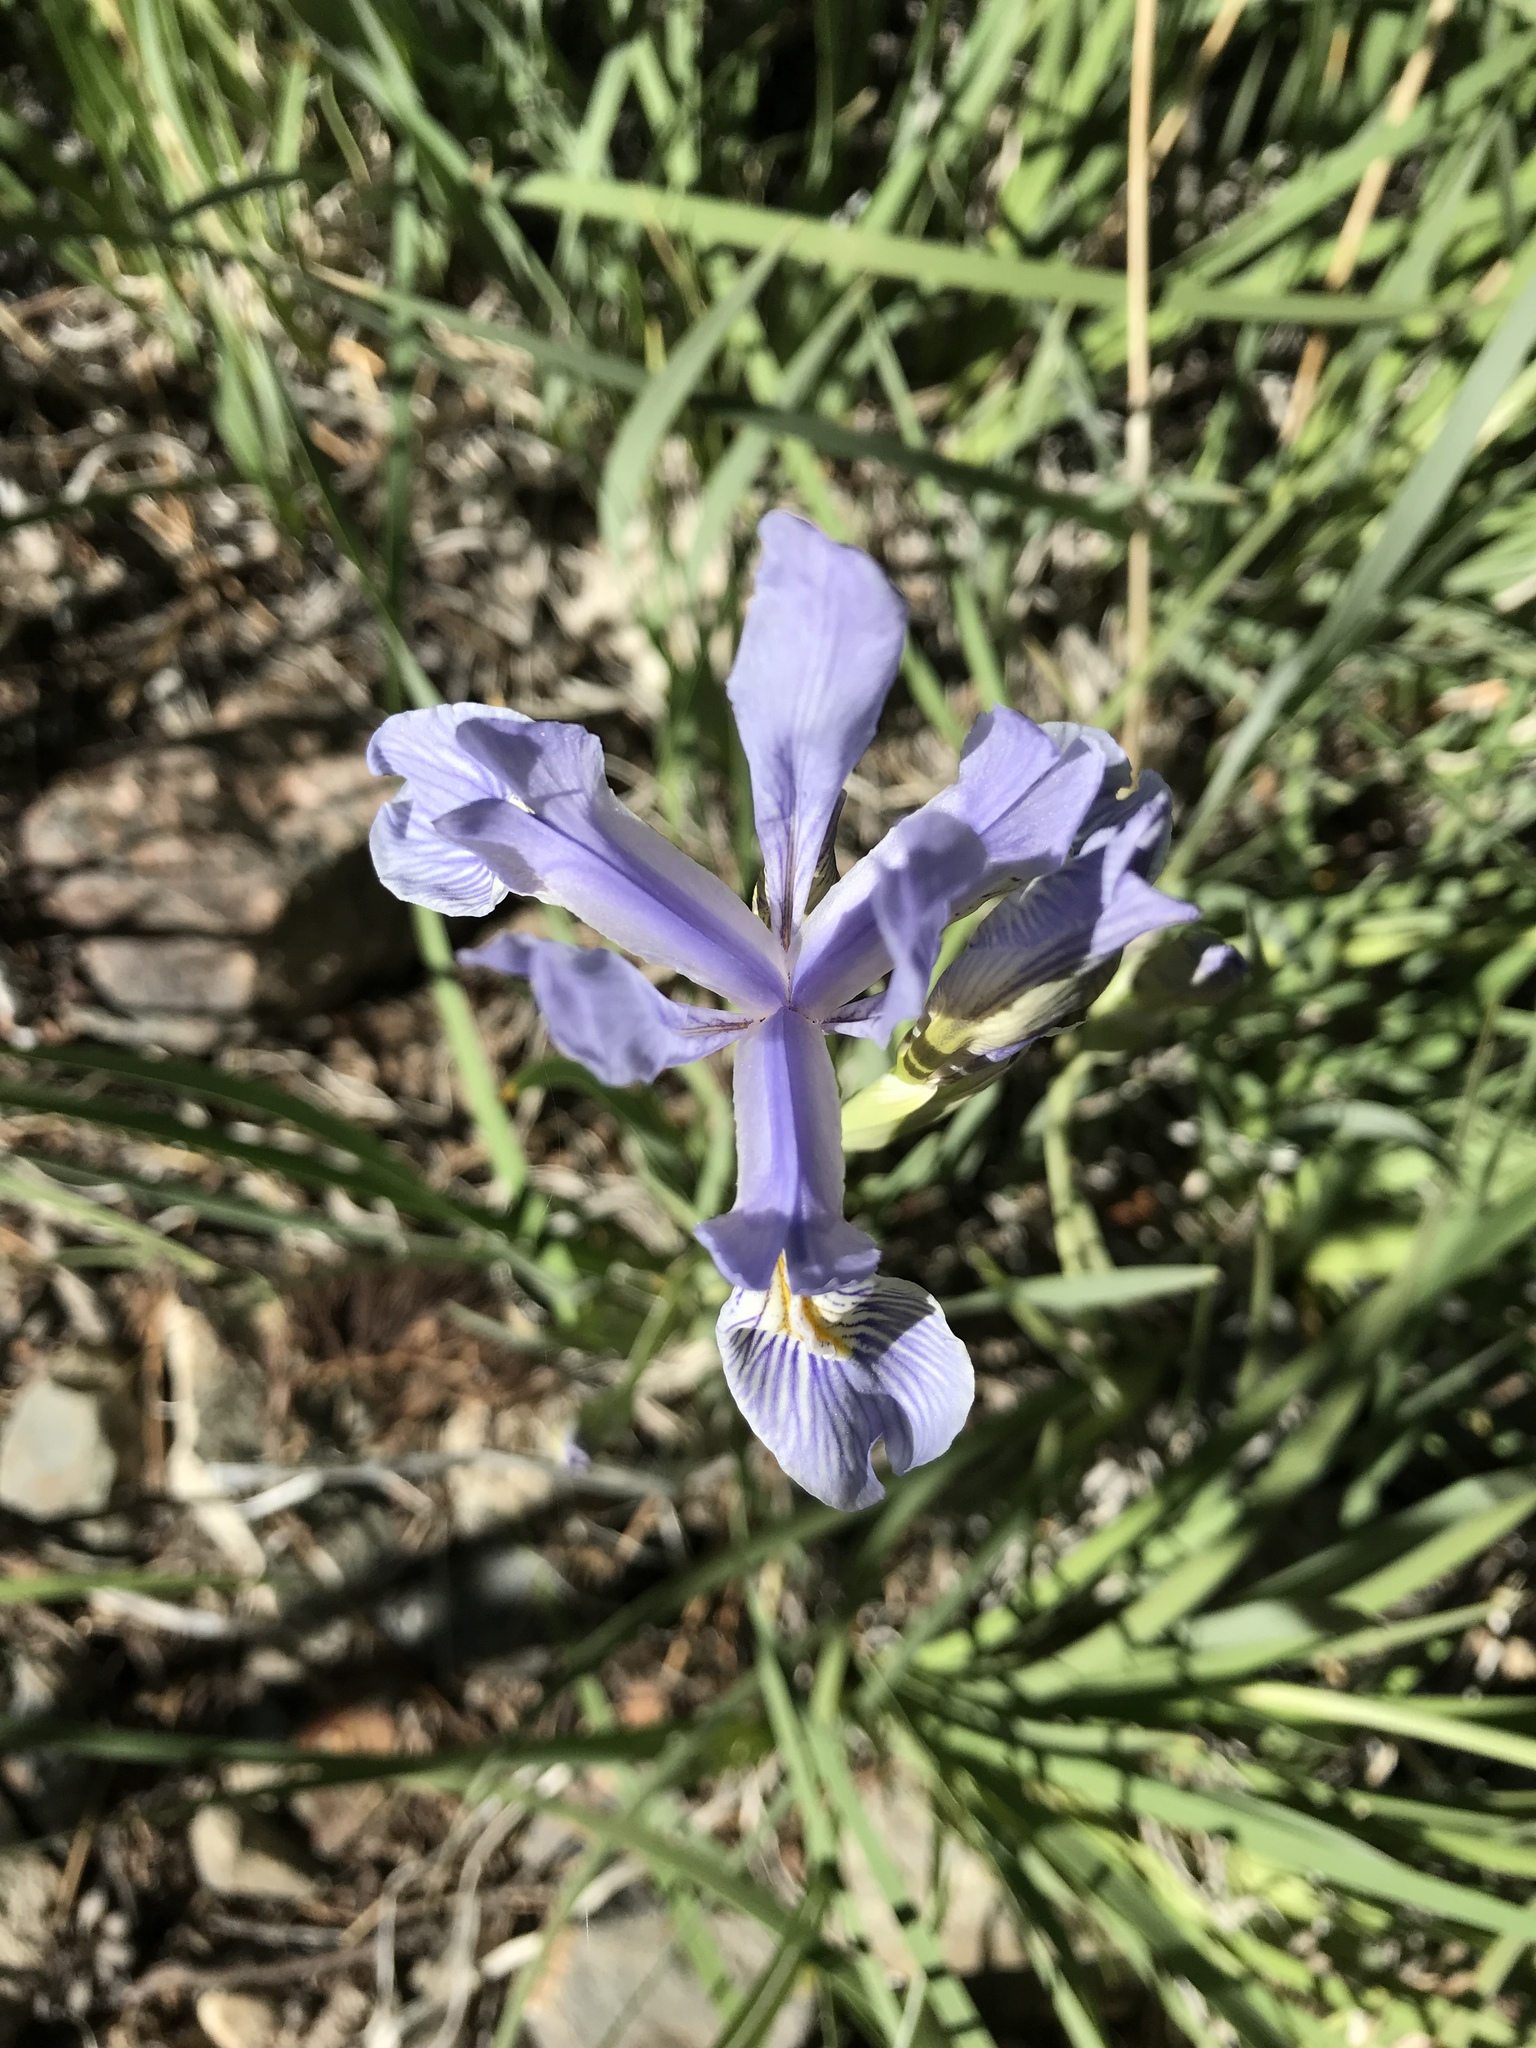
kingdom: Plantae
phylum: Tracheophyta
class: Liliopsida
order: Asparagales
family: Iridaceae
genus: Iris
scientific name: Iris missouriensis
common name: Rocky mountain iris
